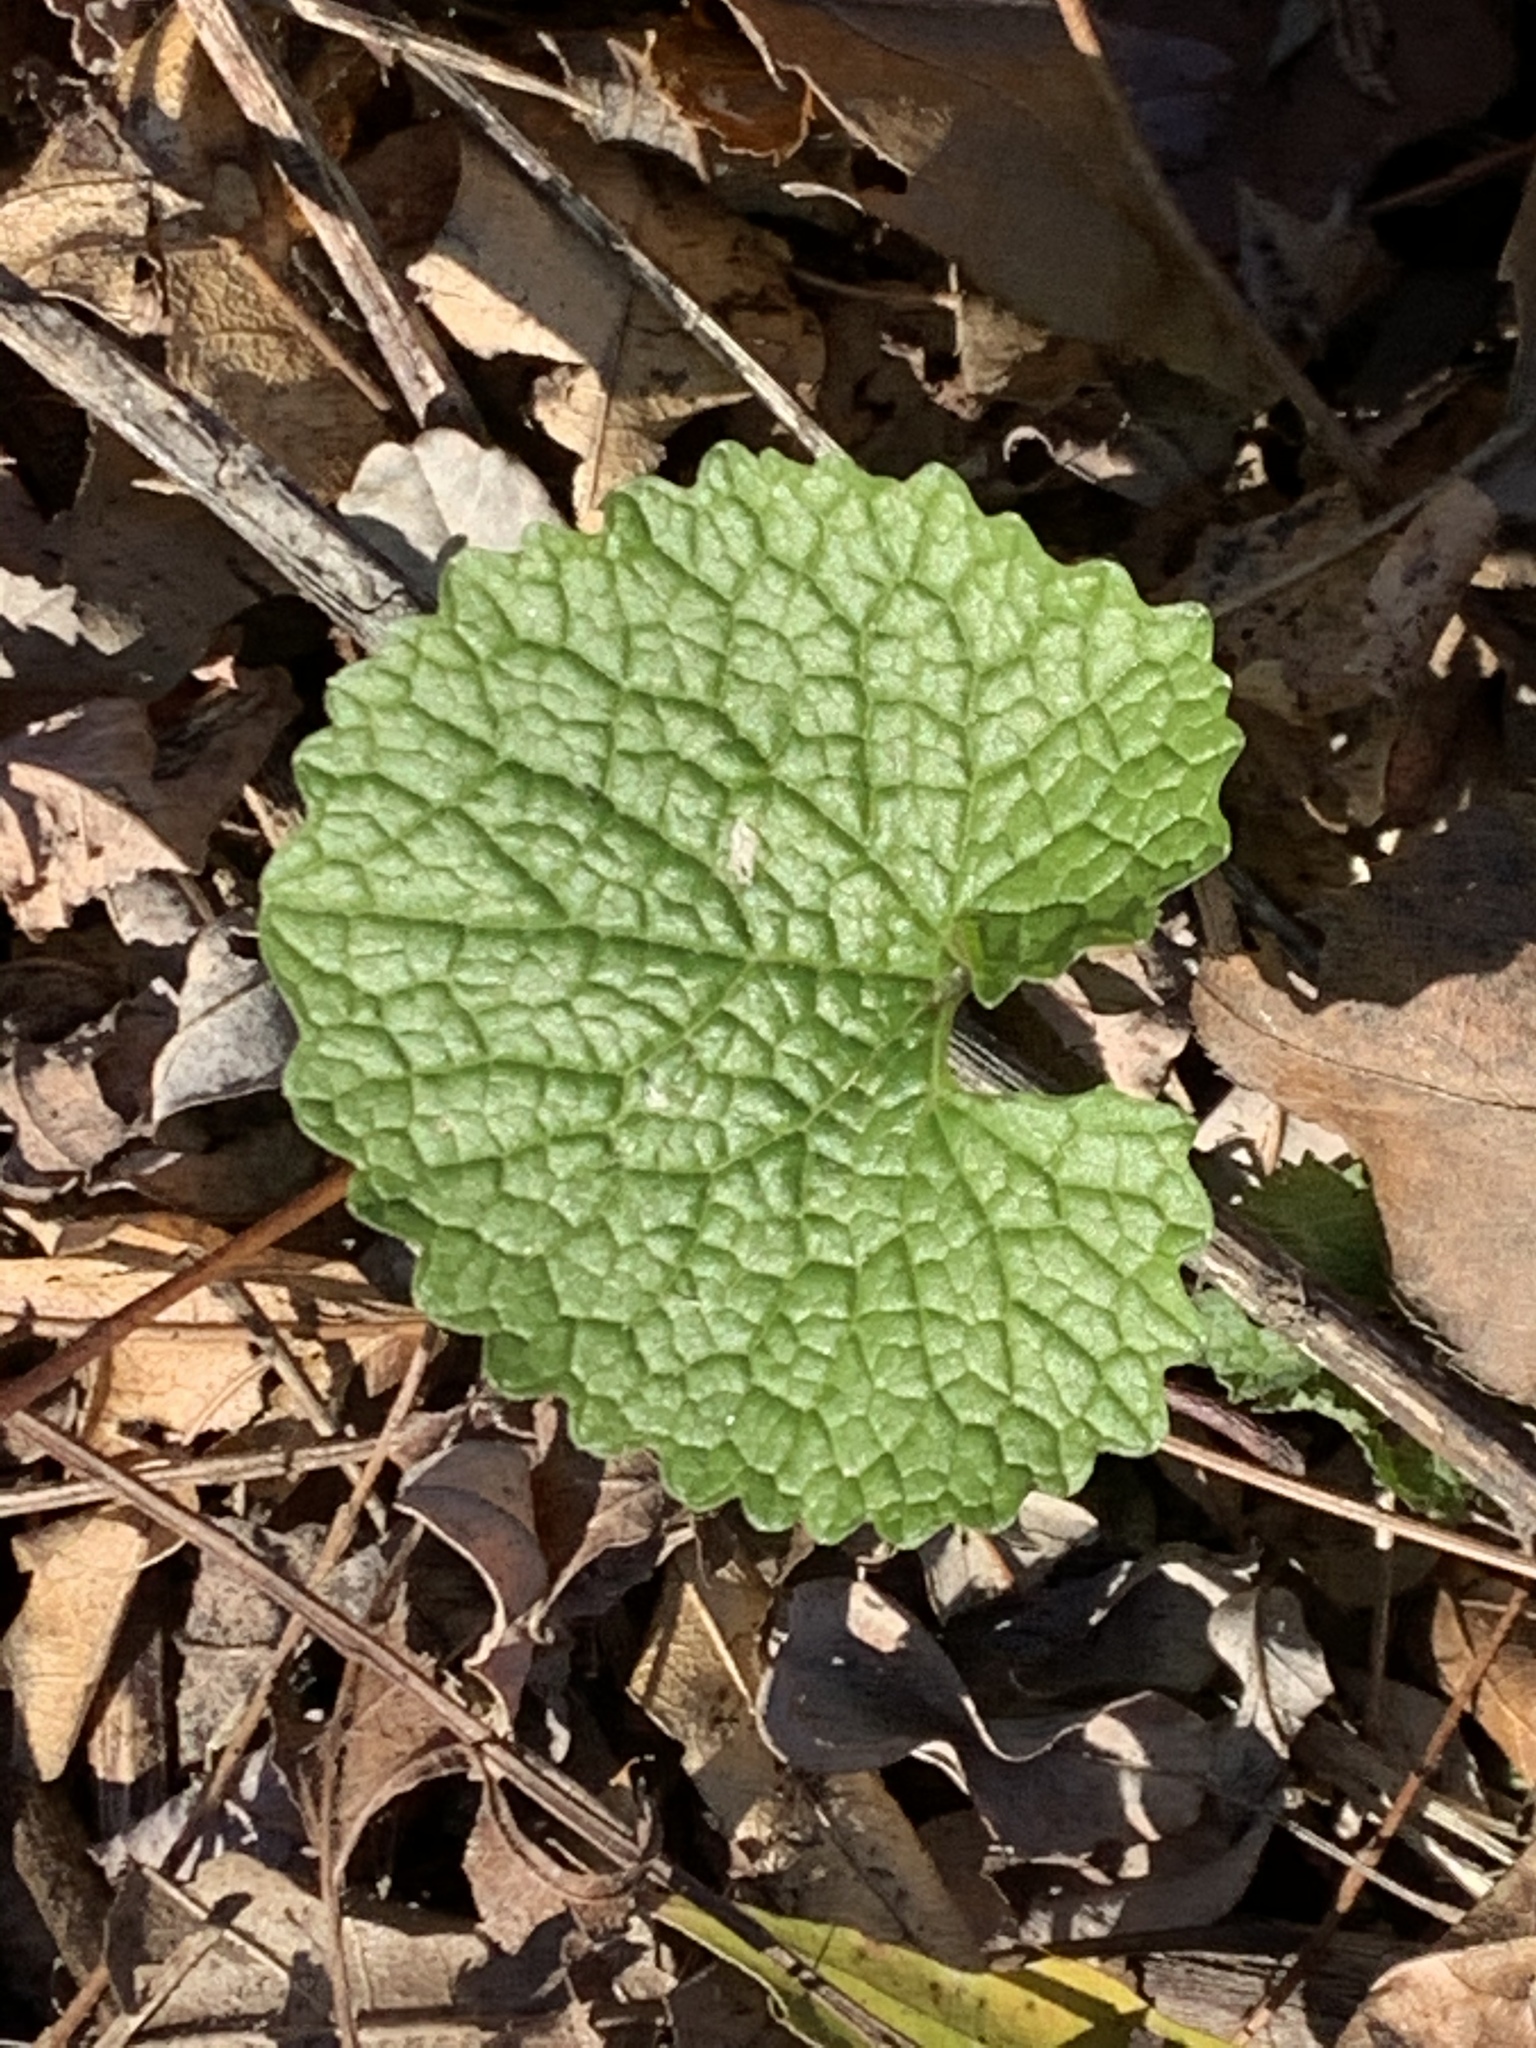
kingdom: Plantae
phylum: Tracheophyta
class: Magnoliopsida
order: Brassicales
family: Brassicaceae
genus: Alliaria
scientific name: Alliaria petiolata
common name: Garlic mustard
